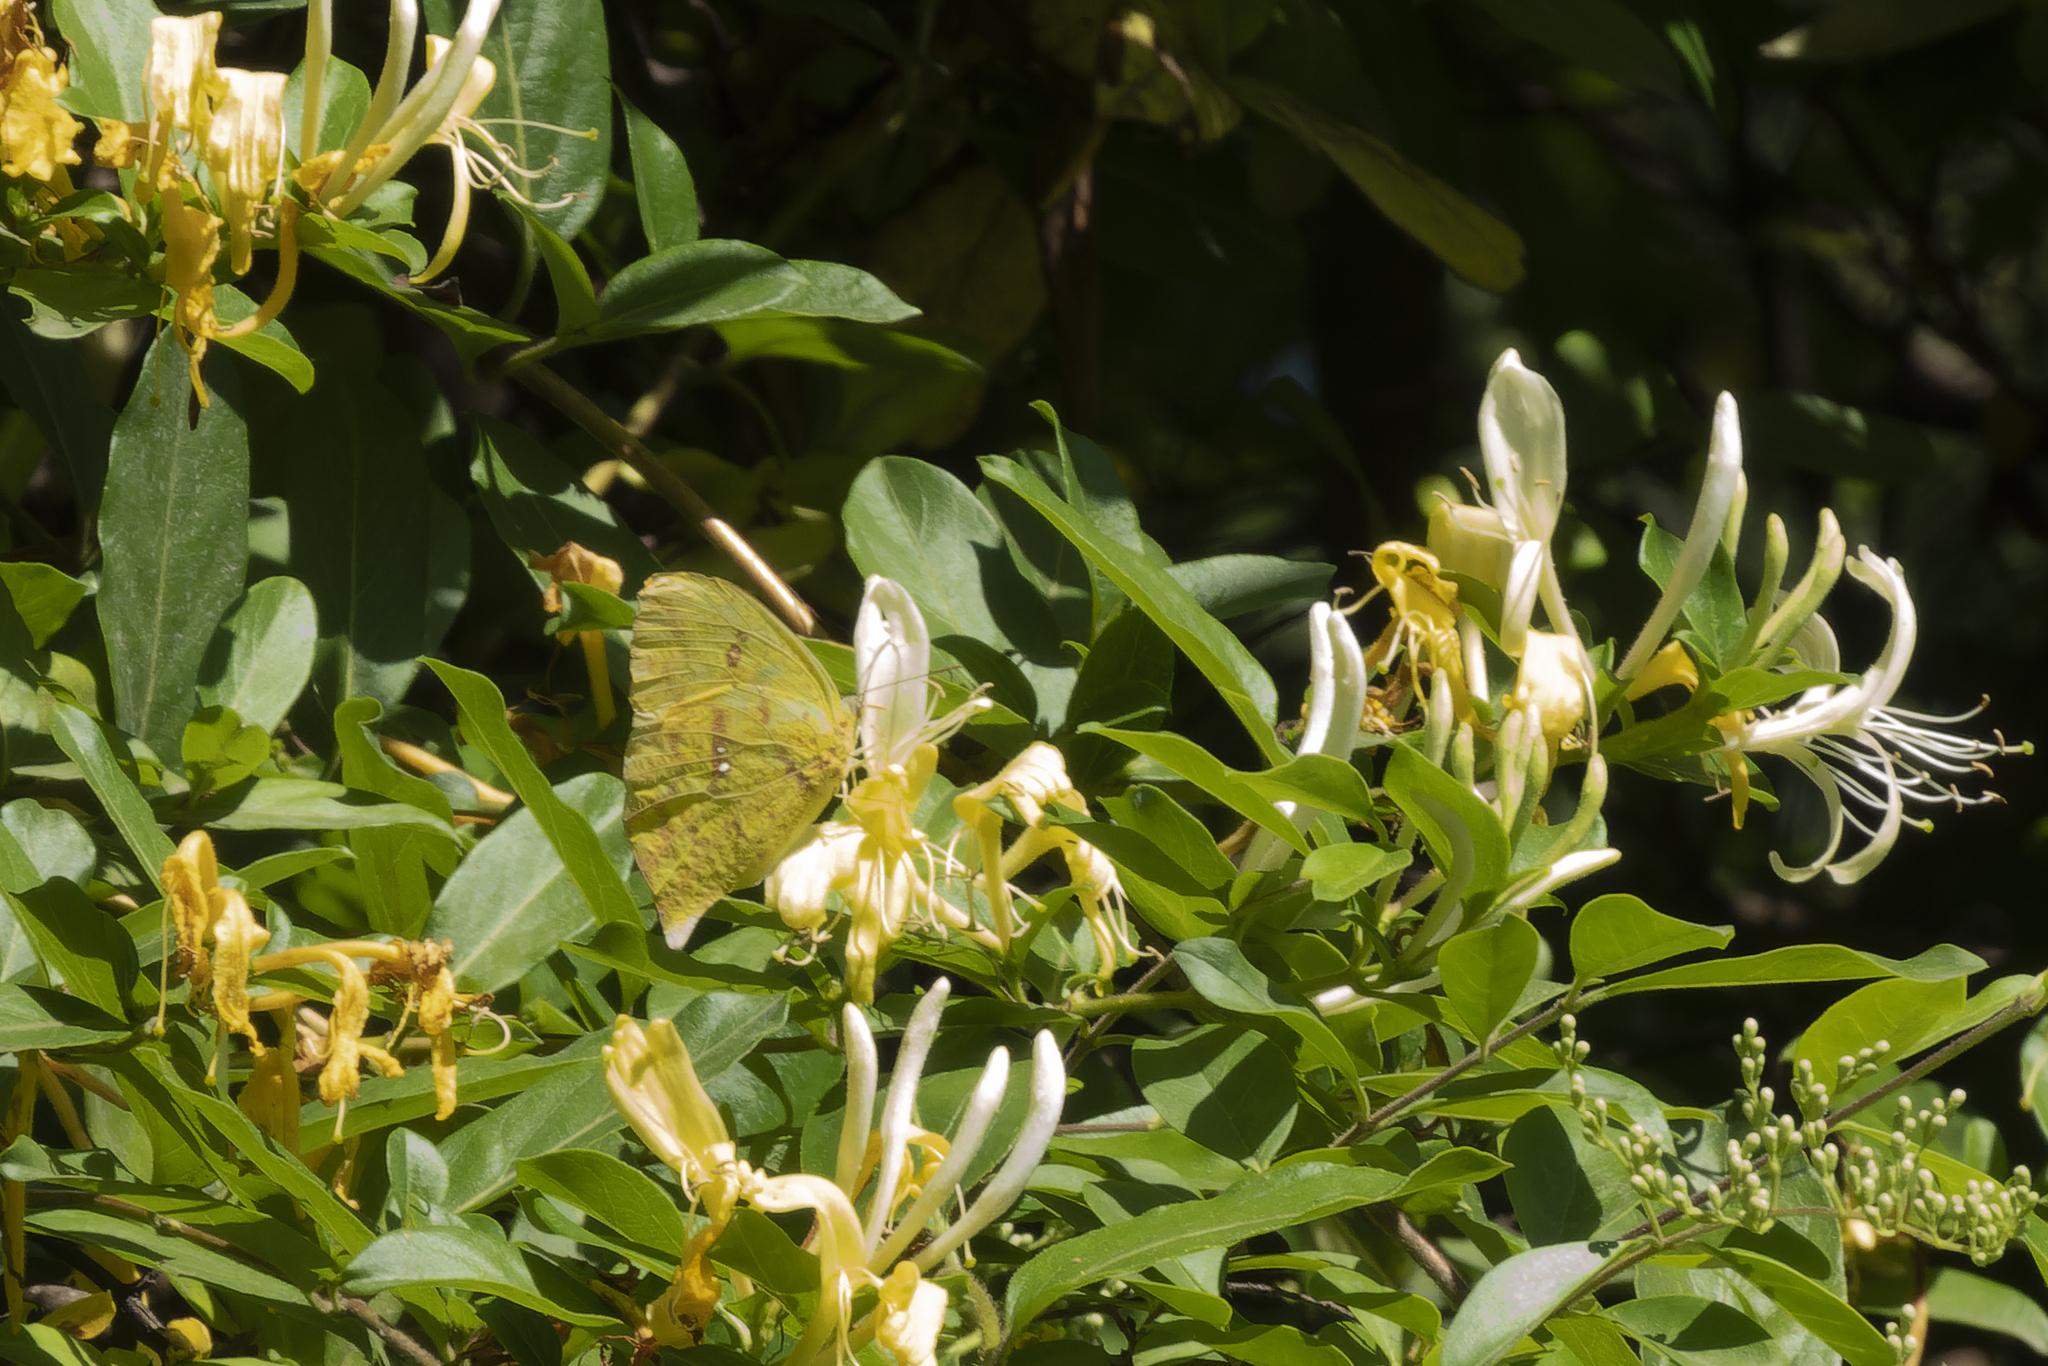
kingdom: Animalia
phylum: Arthropoda
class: Insecta
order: Lepidoptera
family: Pieridae
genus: Phoebis
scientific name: Phoebis neocypris
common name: Tailed sulphur
